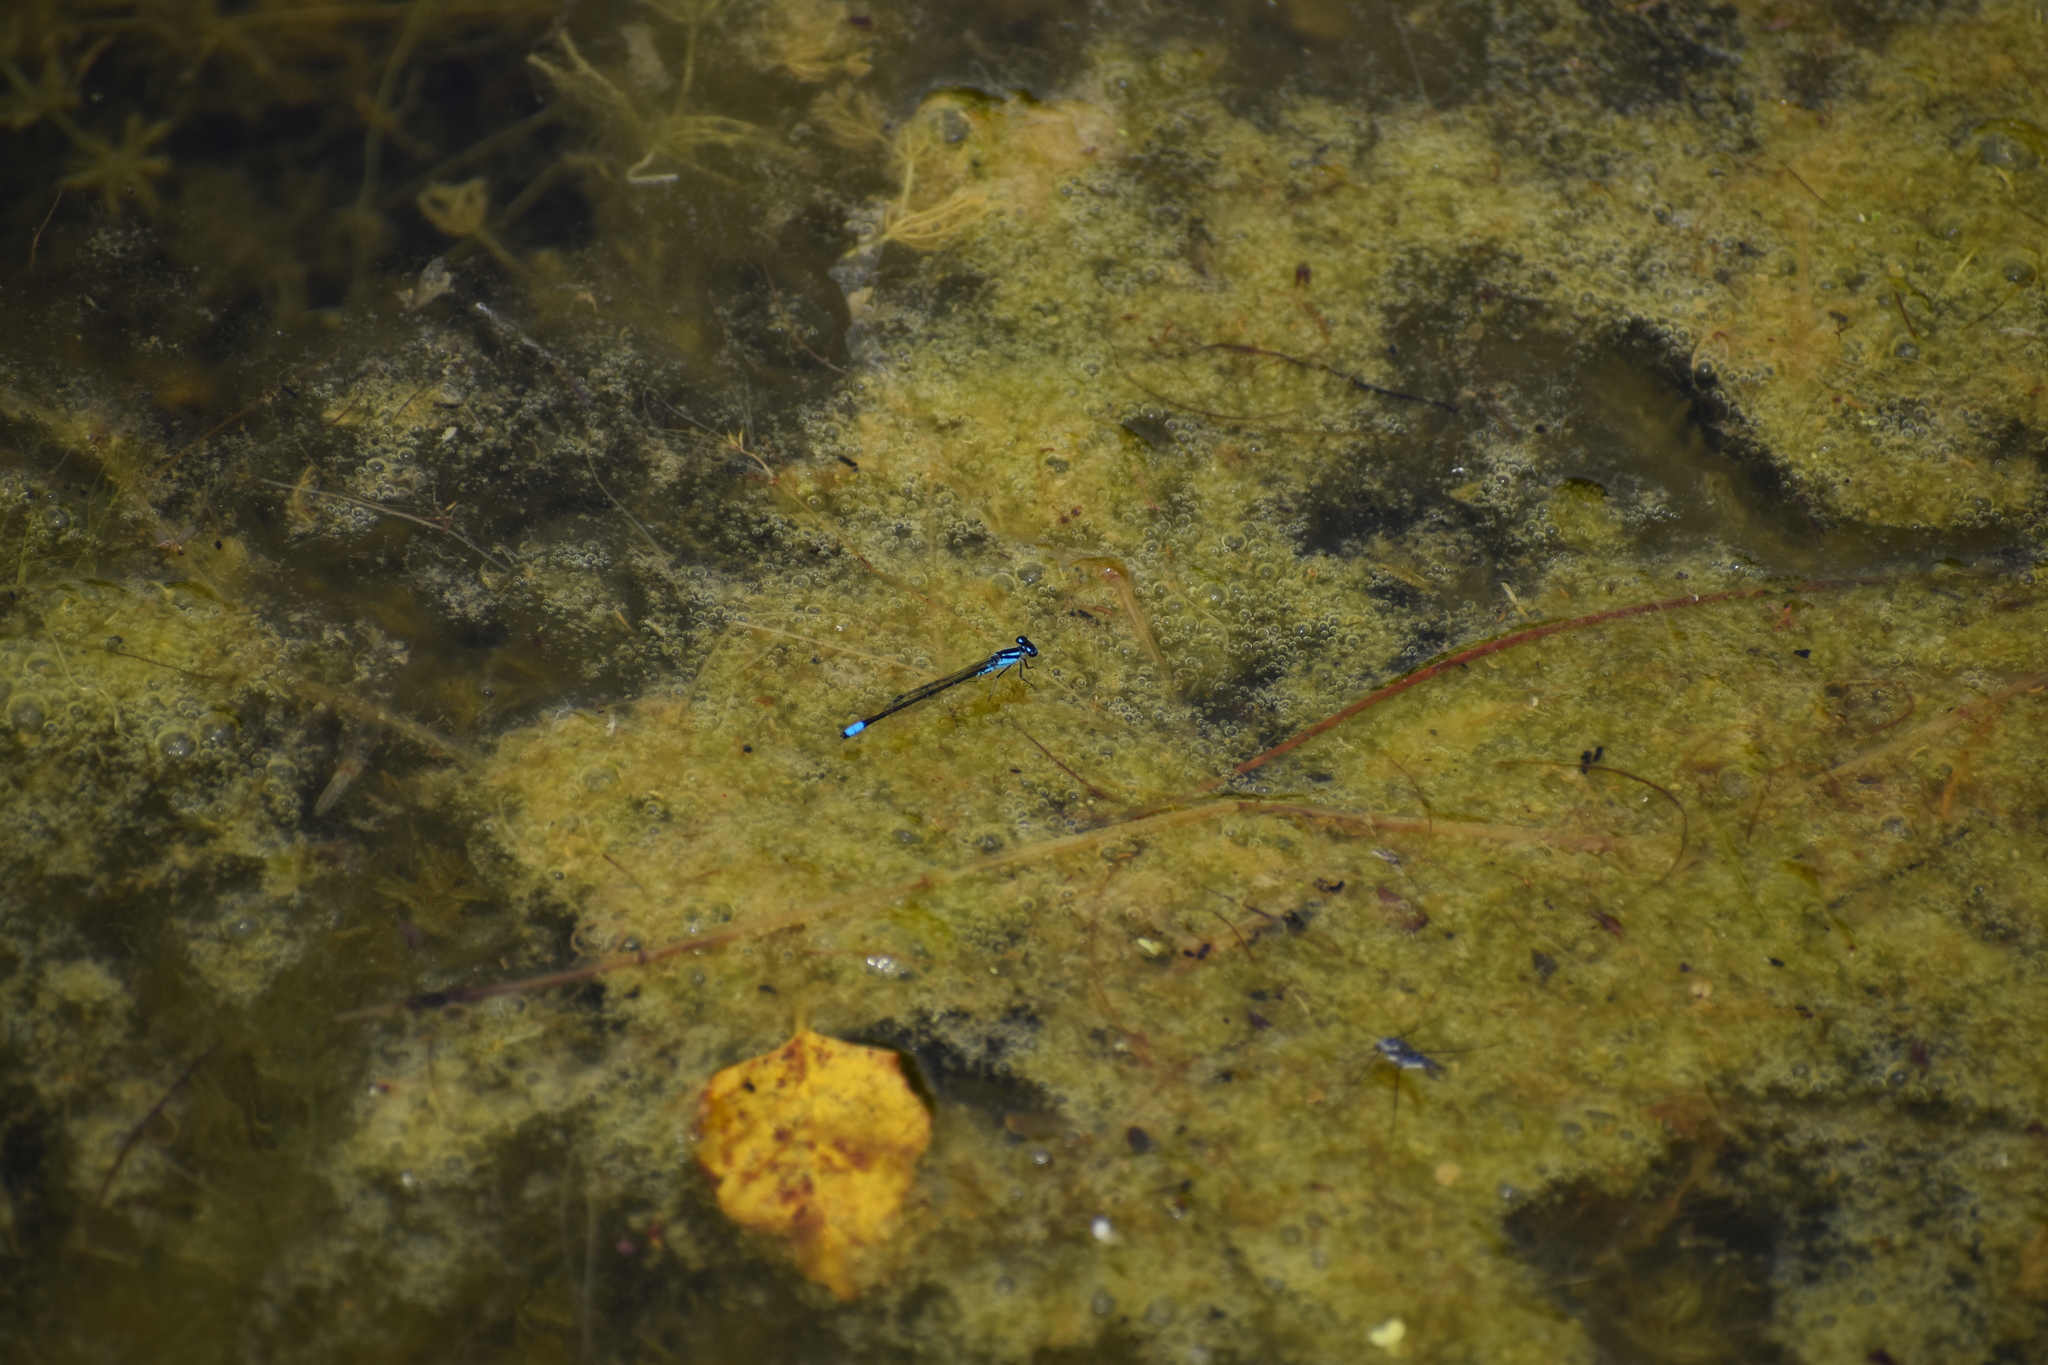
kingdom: Animalia
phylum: Arthropoda
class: Insecta
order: Odonata
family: Coenagrionidae
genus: Enallagma
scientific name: Enallagma geminatum
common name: Skimming bluet
